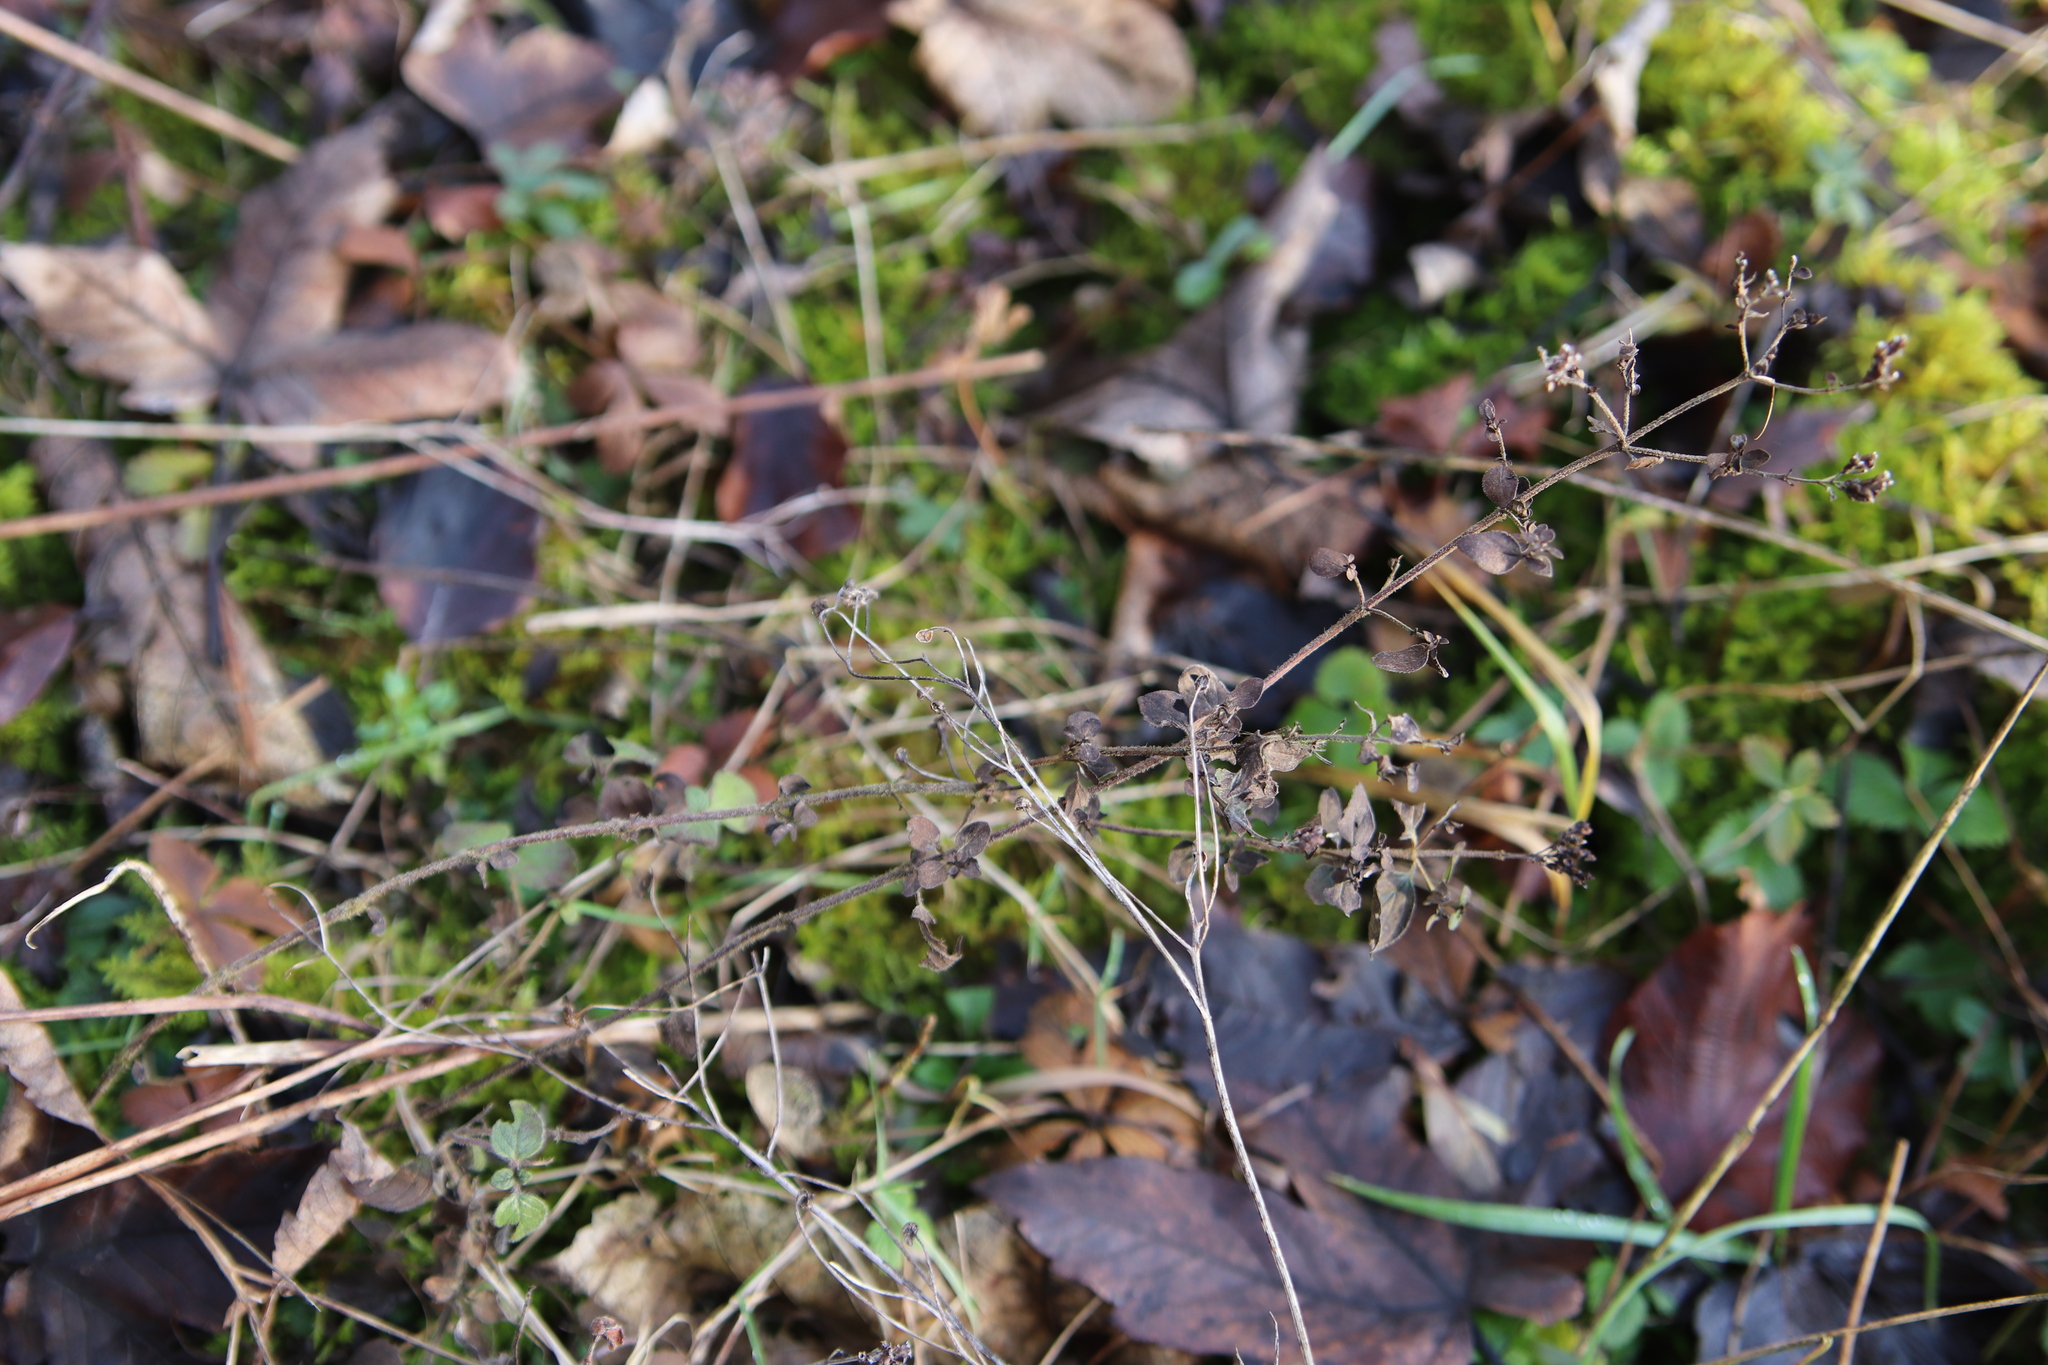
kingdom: Plantae
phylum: Tracheophyta
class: Magnoliopsida
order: Lamiales
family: Lamiaceae
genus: Origanum
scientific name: Origanum vulgare
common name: Wild marjoram
